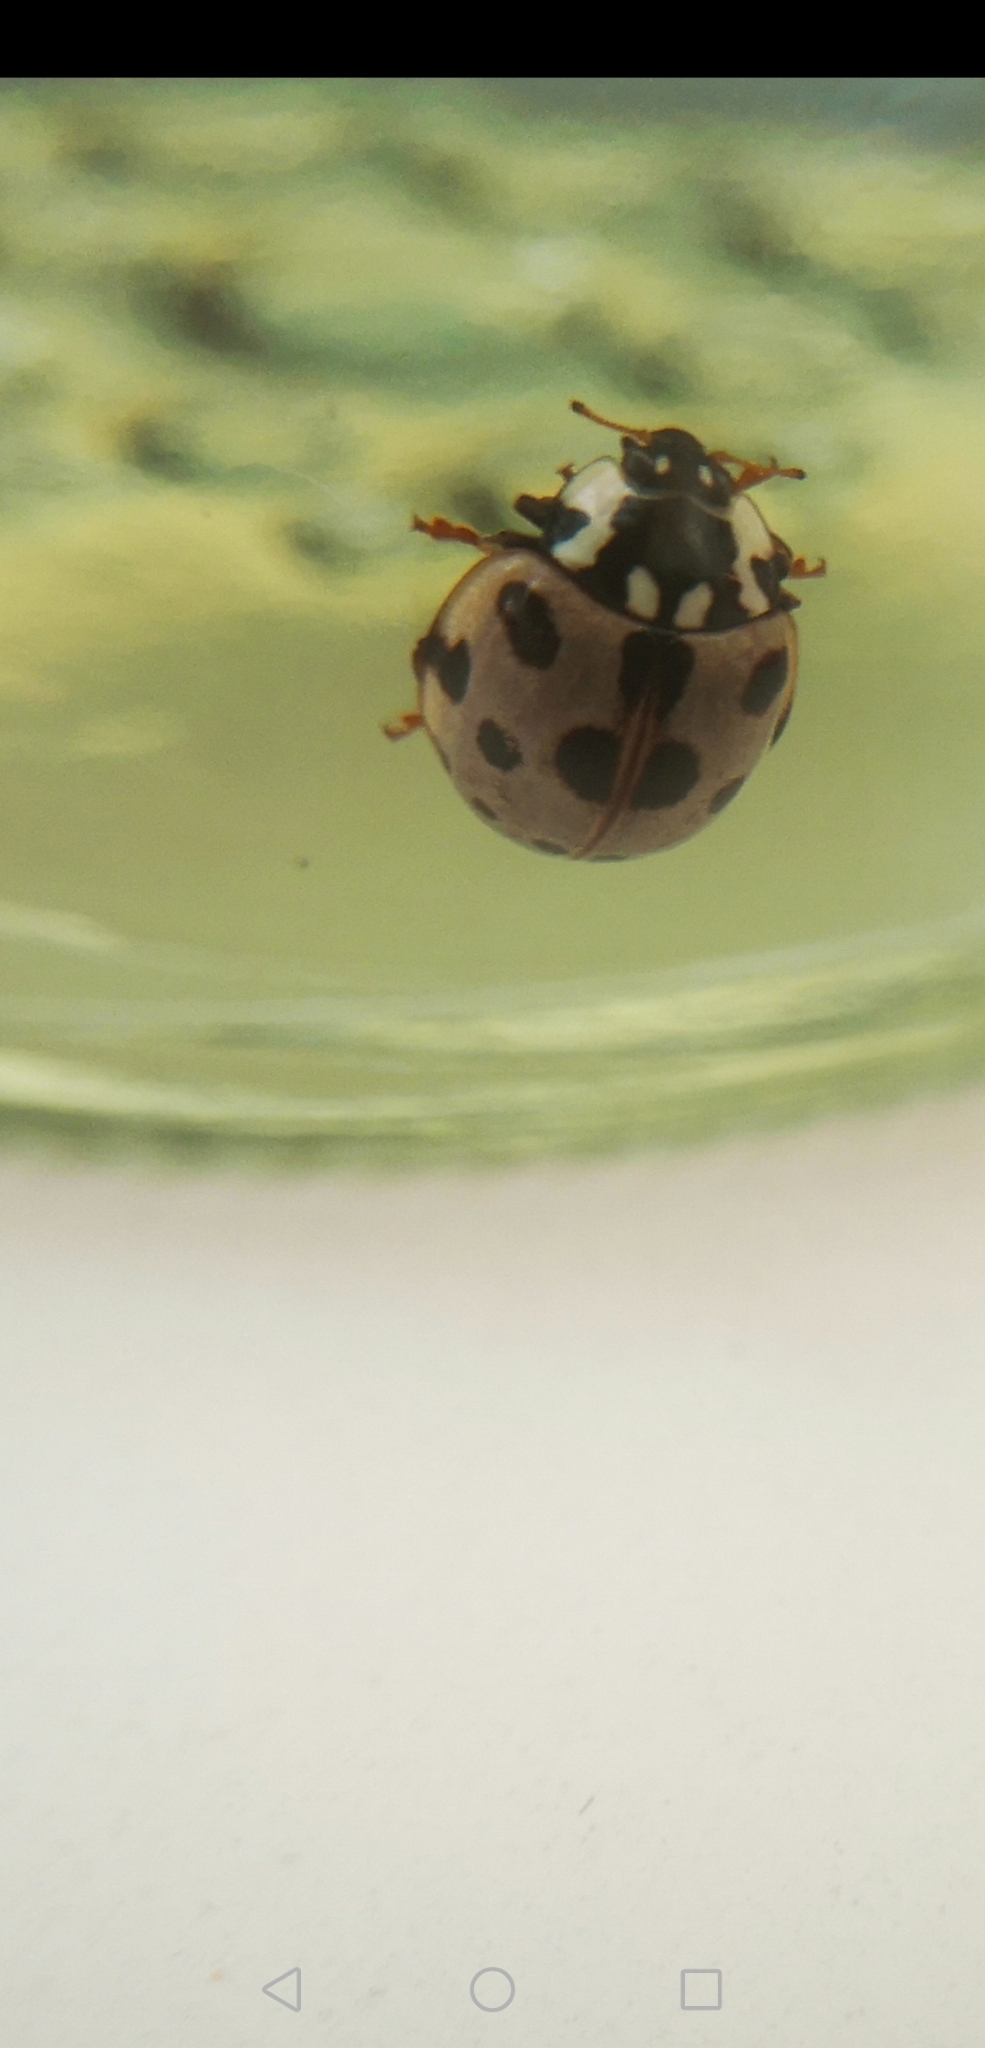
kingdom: Animalia
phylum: Arthropoda
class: Insecta
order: Coleoptera
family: Coccinellidae
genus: Anatis
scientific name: Anatis labiculata
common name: Fifteen-spotted lady beetle
